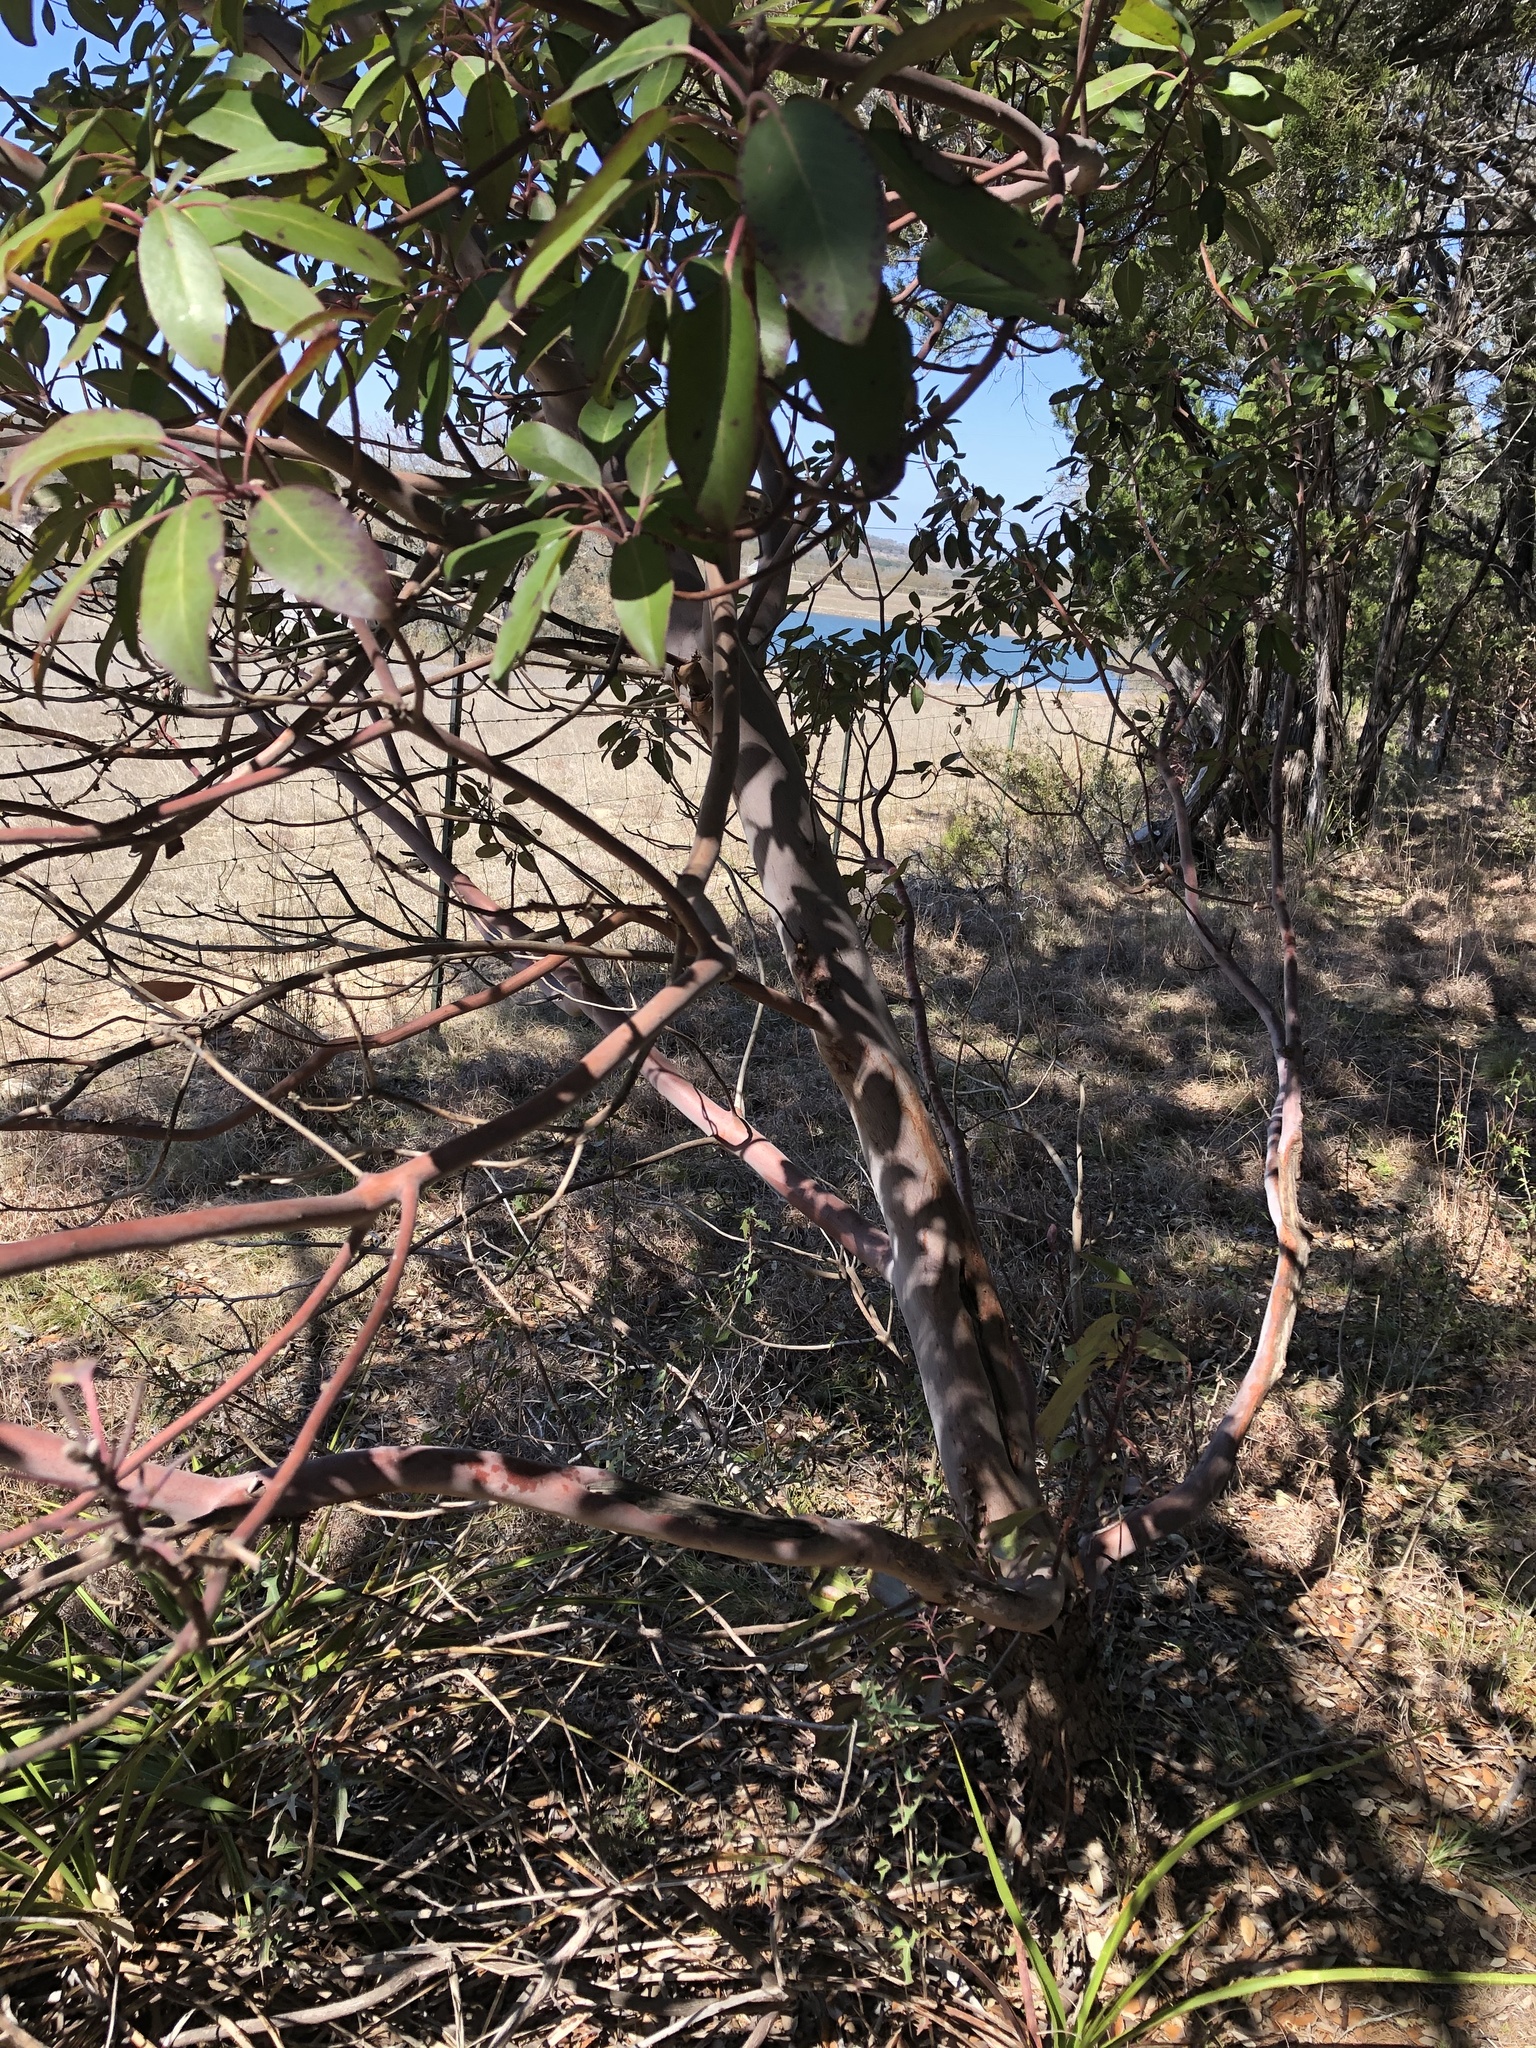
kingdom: Plantae
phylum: Tracheophyta
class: Magnoliopsida
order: Ericales
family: Ericaceae
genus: Arbutus
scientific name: Arbutus xalapensis
